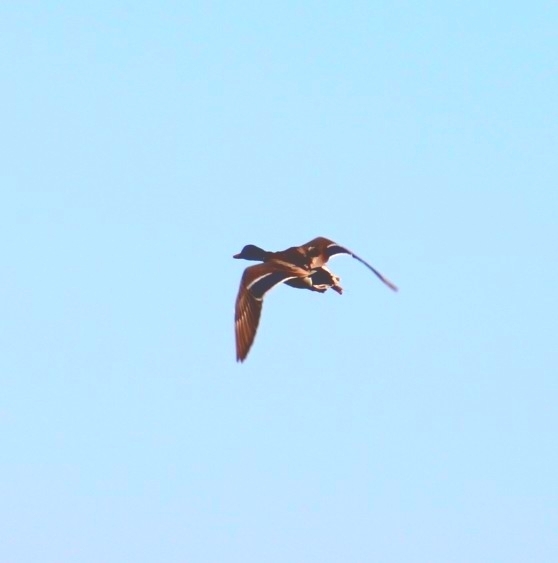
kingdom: Animalia
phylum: Chordata
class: Aves
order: Anseriformes
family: Anatidae
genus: Anas
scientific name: Anas platyrhynchos
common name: Mallard
